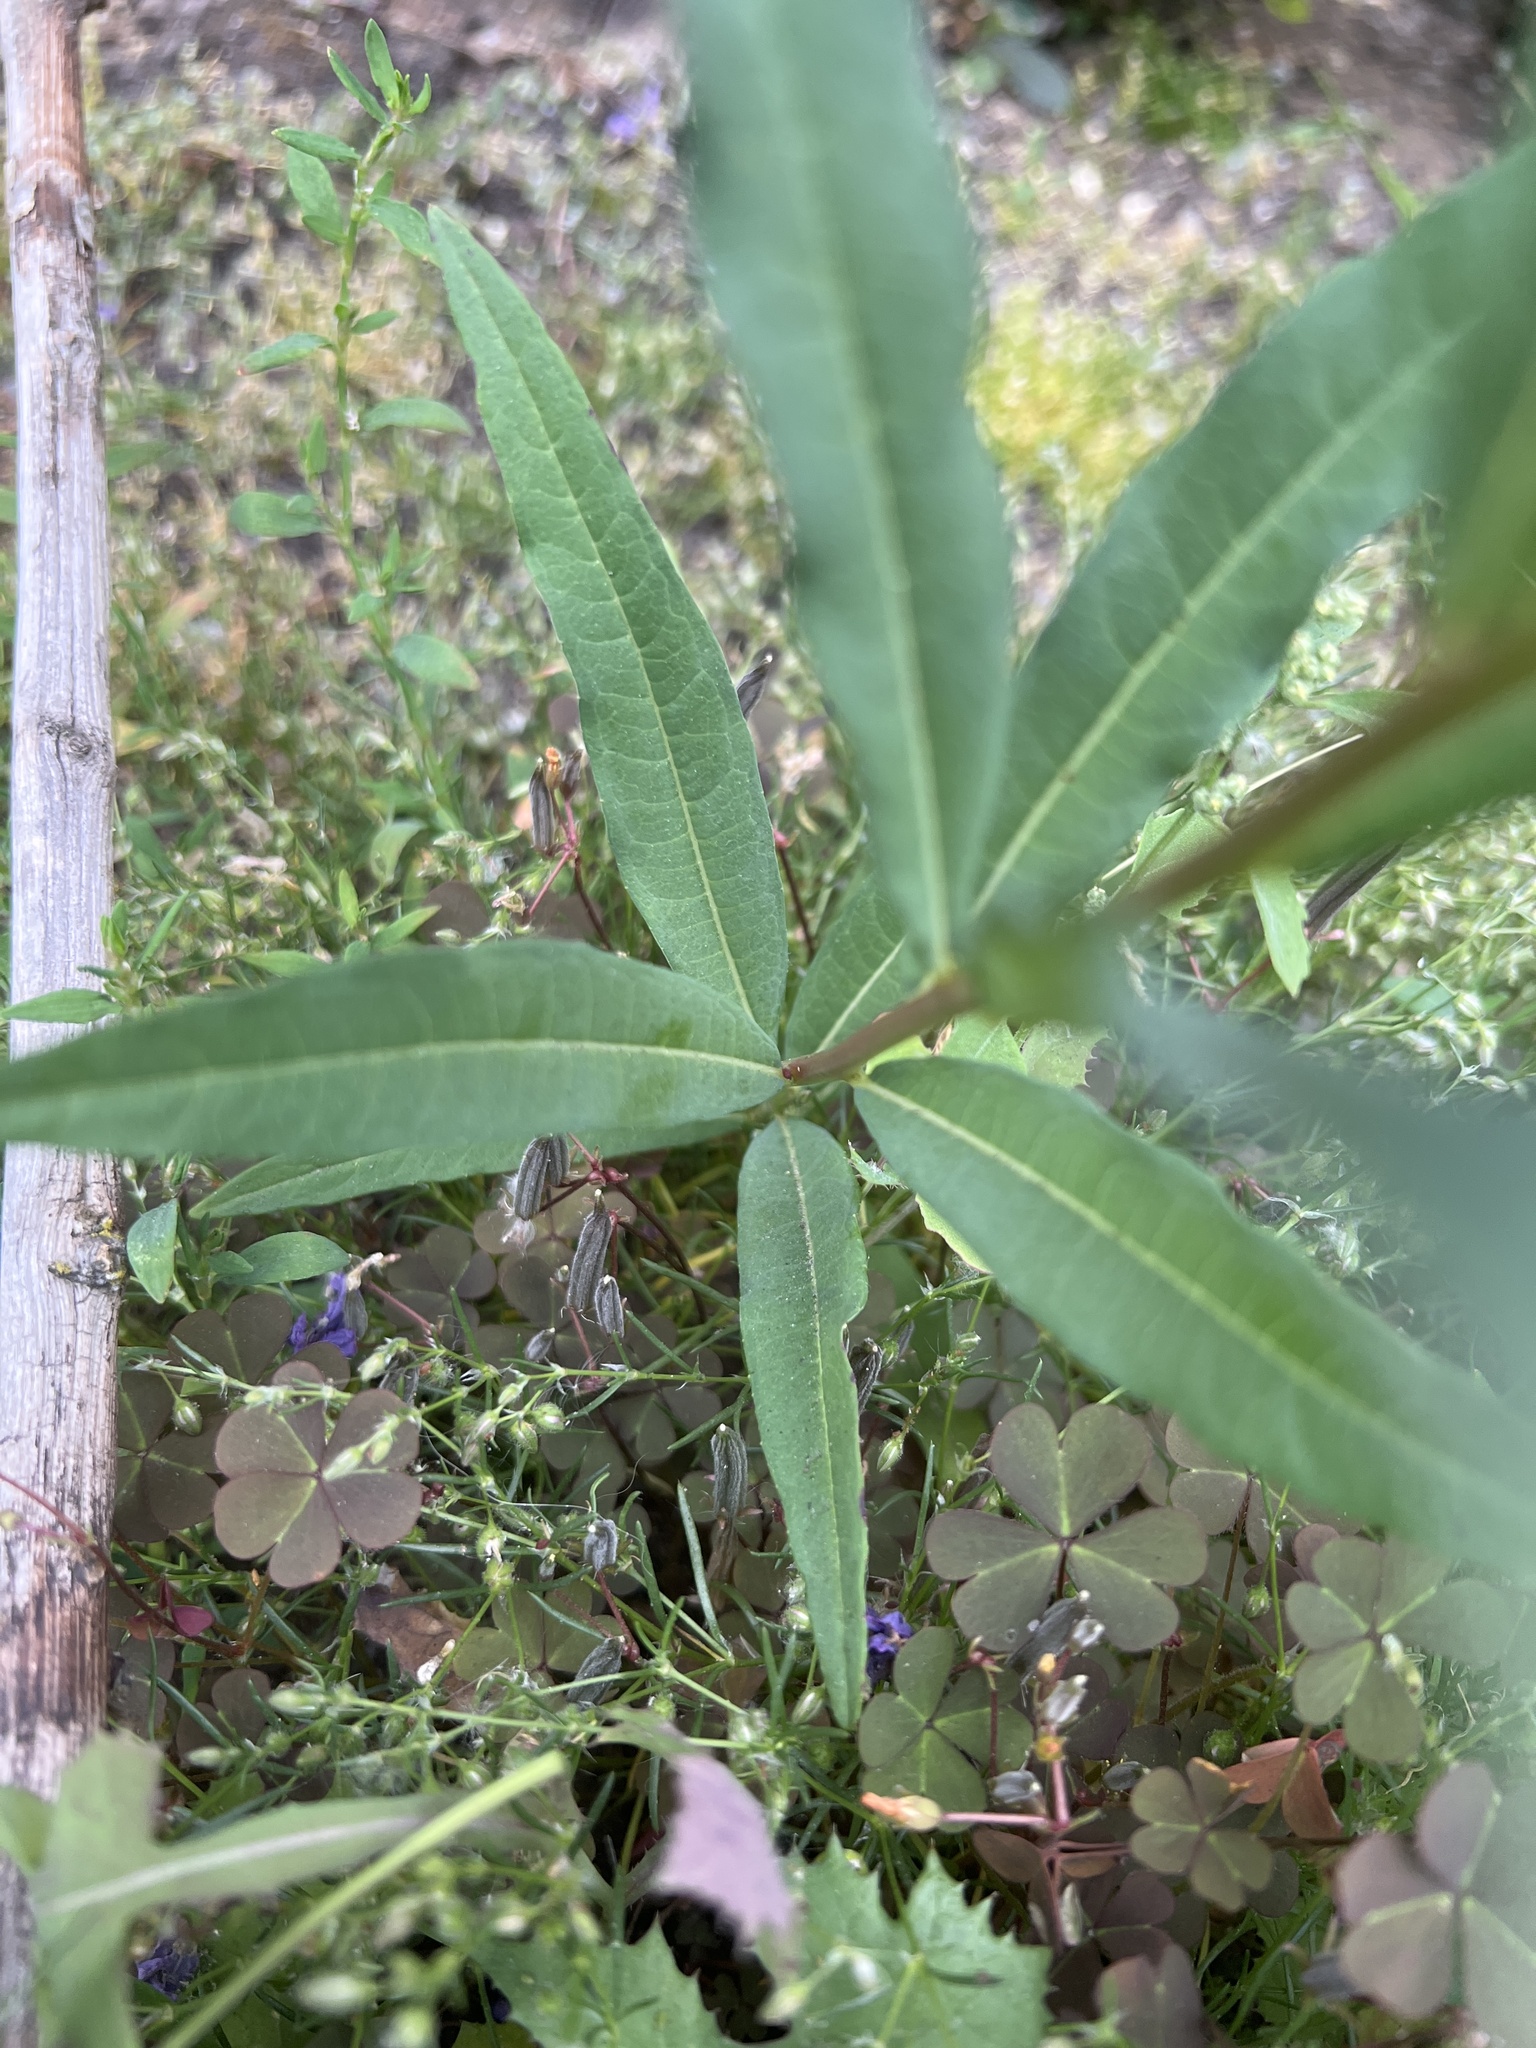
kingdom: Plantae
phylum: Tracheophyta
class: Magnoliopsida
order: Myrtales
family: Onagraceae
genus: Chamaenerion
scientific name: Chamaenerion angustifolium
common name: Fireweed
